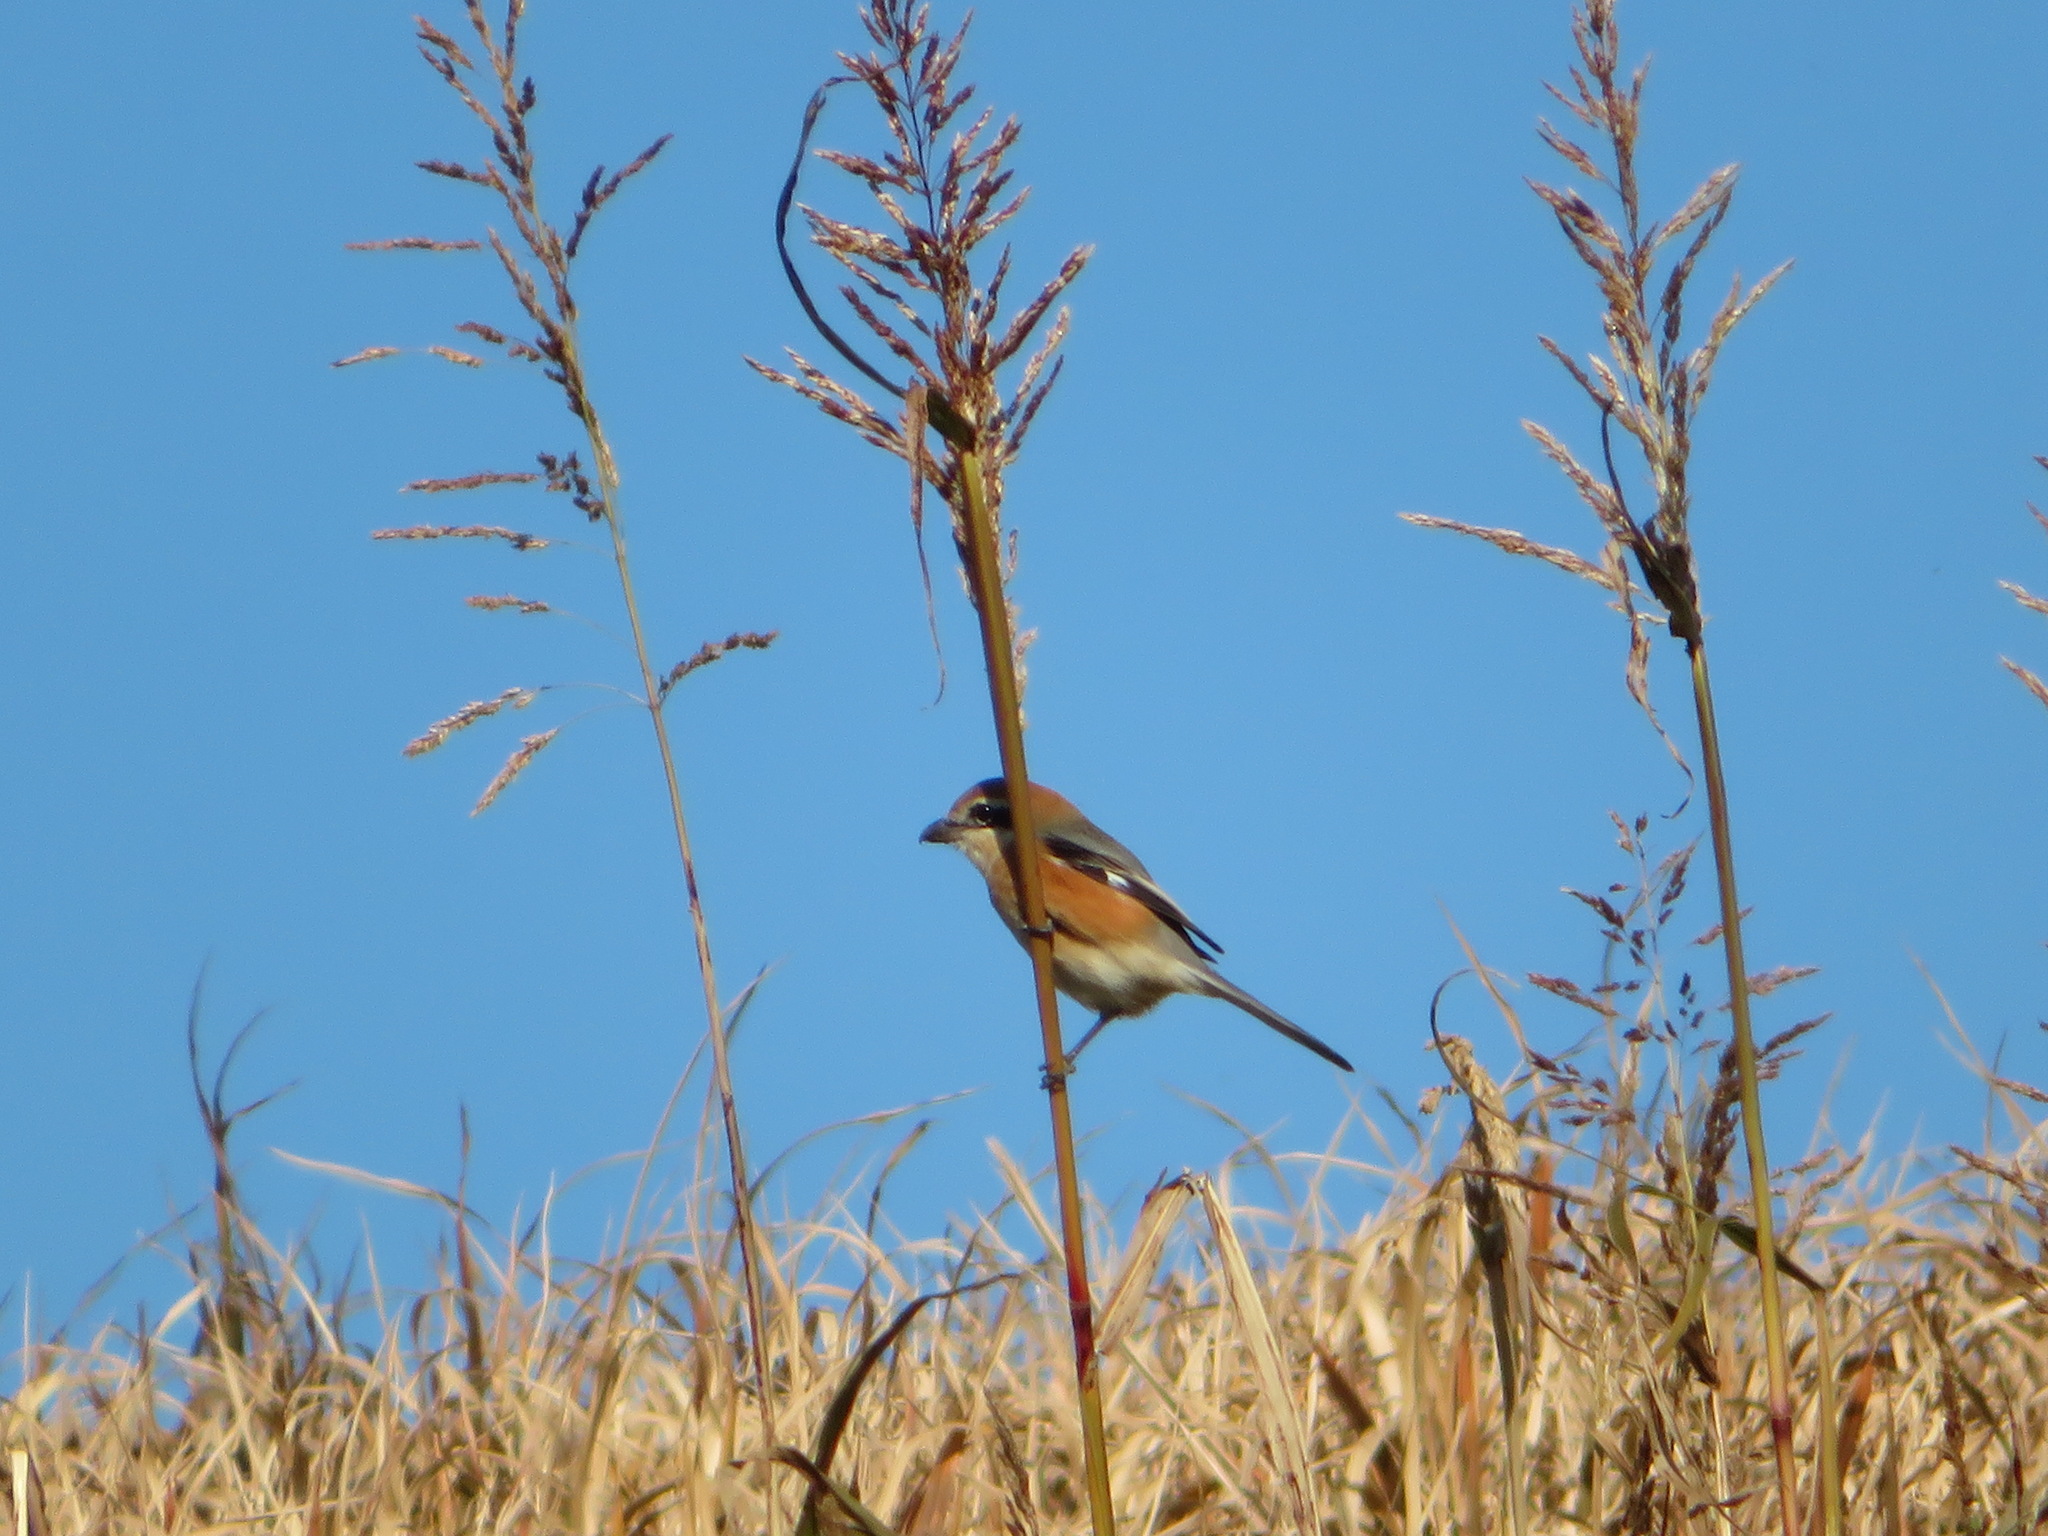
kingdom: Animalia
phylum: Chordata
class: Aves
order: Passeriformes
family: Laniidae
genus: Lanius
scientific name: Lanius bucephalus
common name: Bull-headed shrike
